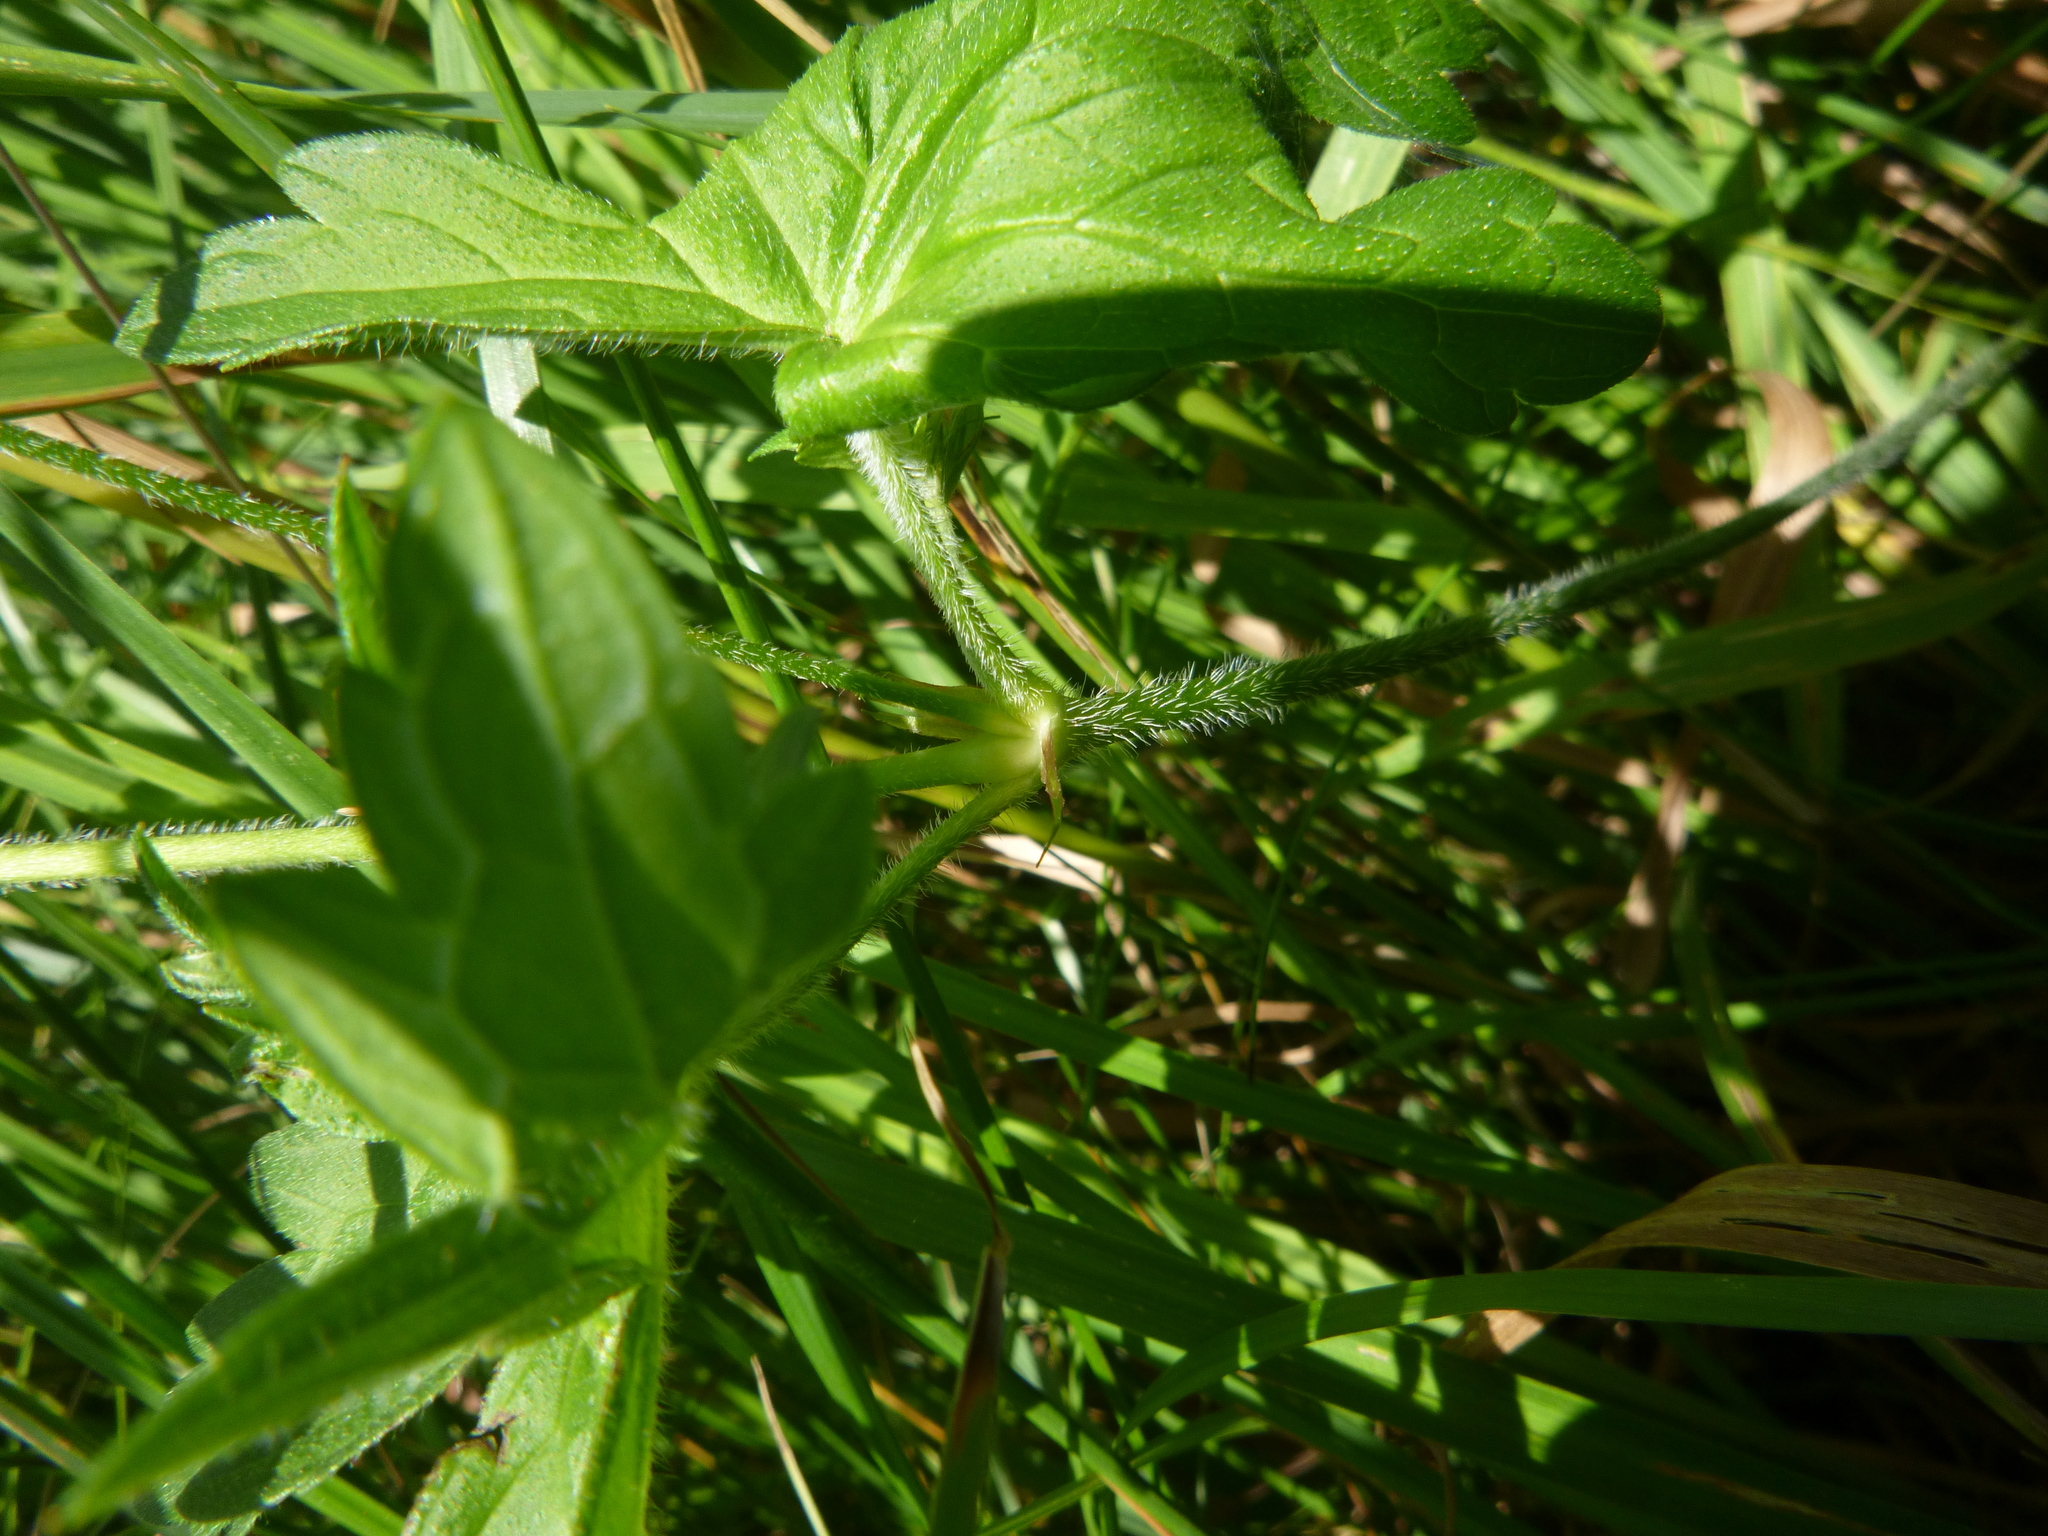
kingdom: Plantae
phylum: Tracheophyta
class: Magnoliopsida
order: Geraniales
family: Geraniaceae
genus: Geranium
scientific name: Geranium palustre
